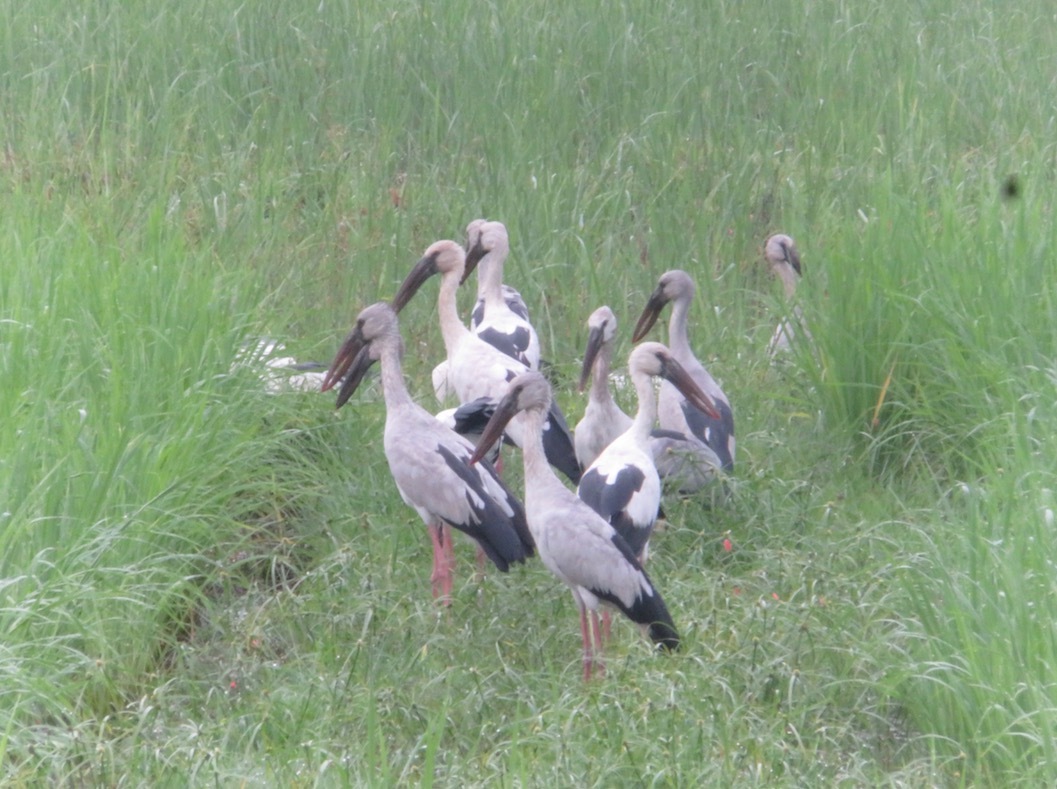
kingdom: Animalia
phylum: Chordata
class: Aves
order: Ciconiiformes
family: Ciconiidae
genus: Anastomus
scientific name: Anastomus oscitans
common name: Asian openbill
